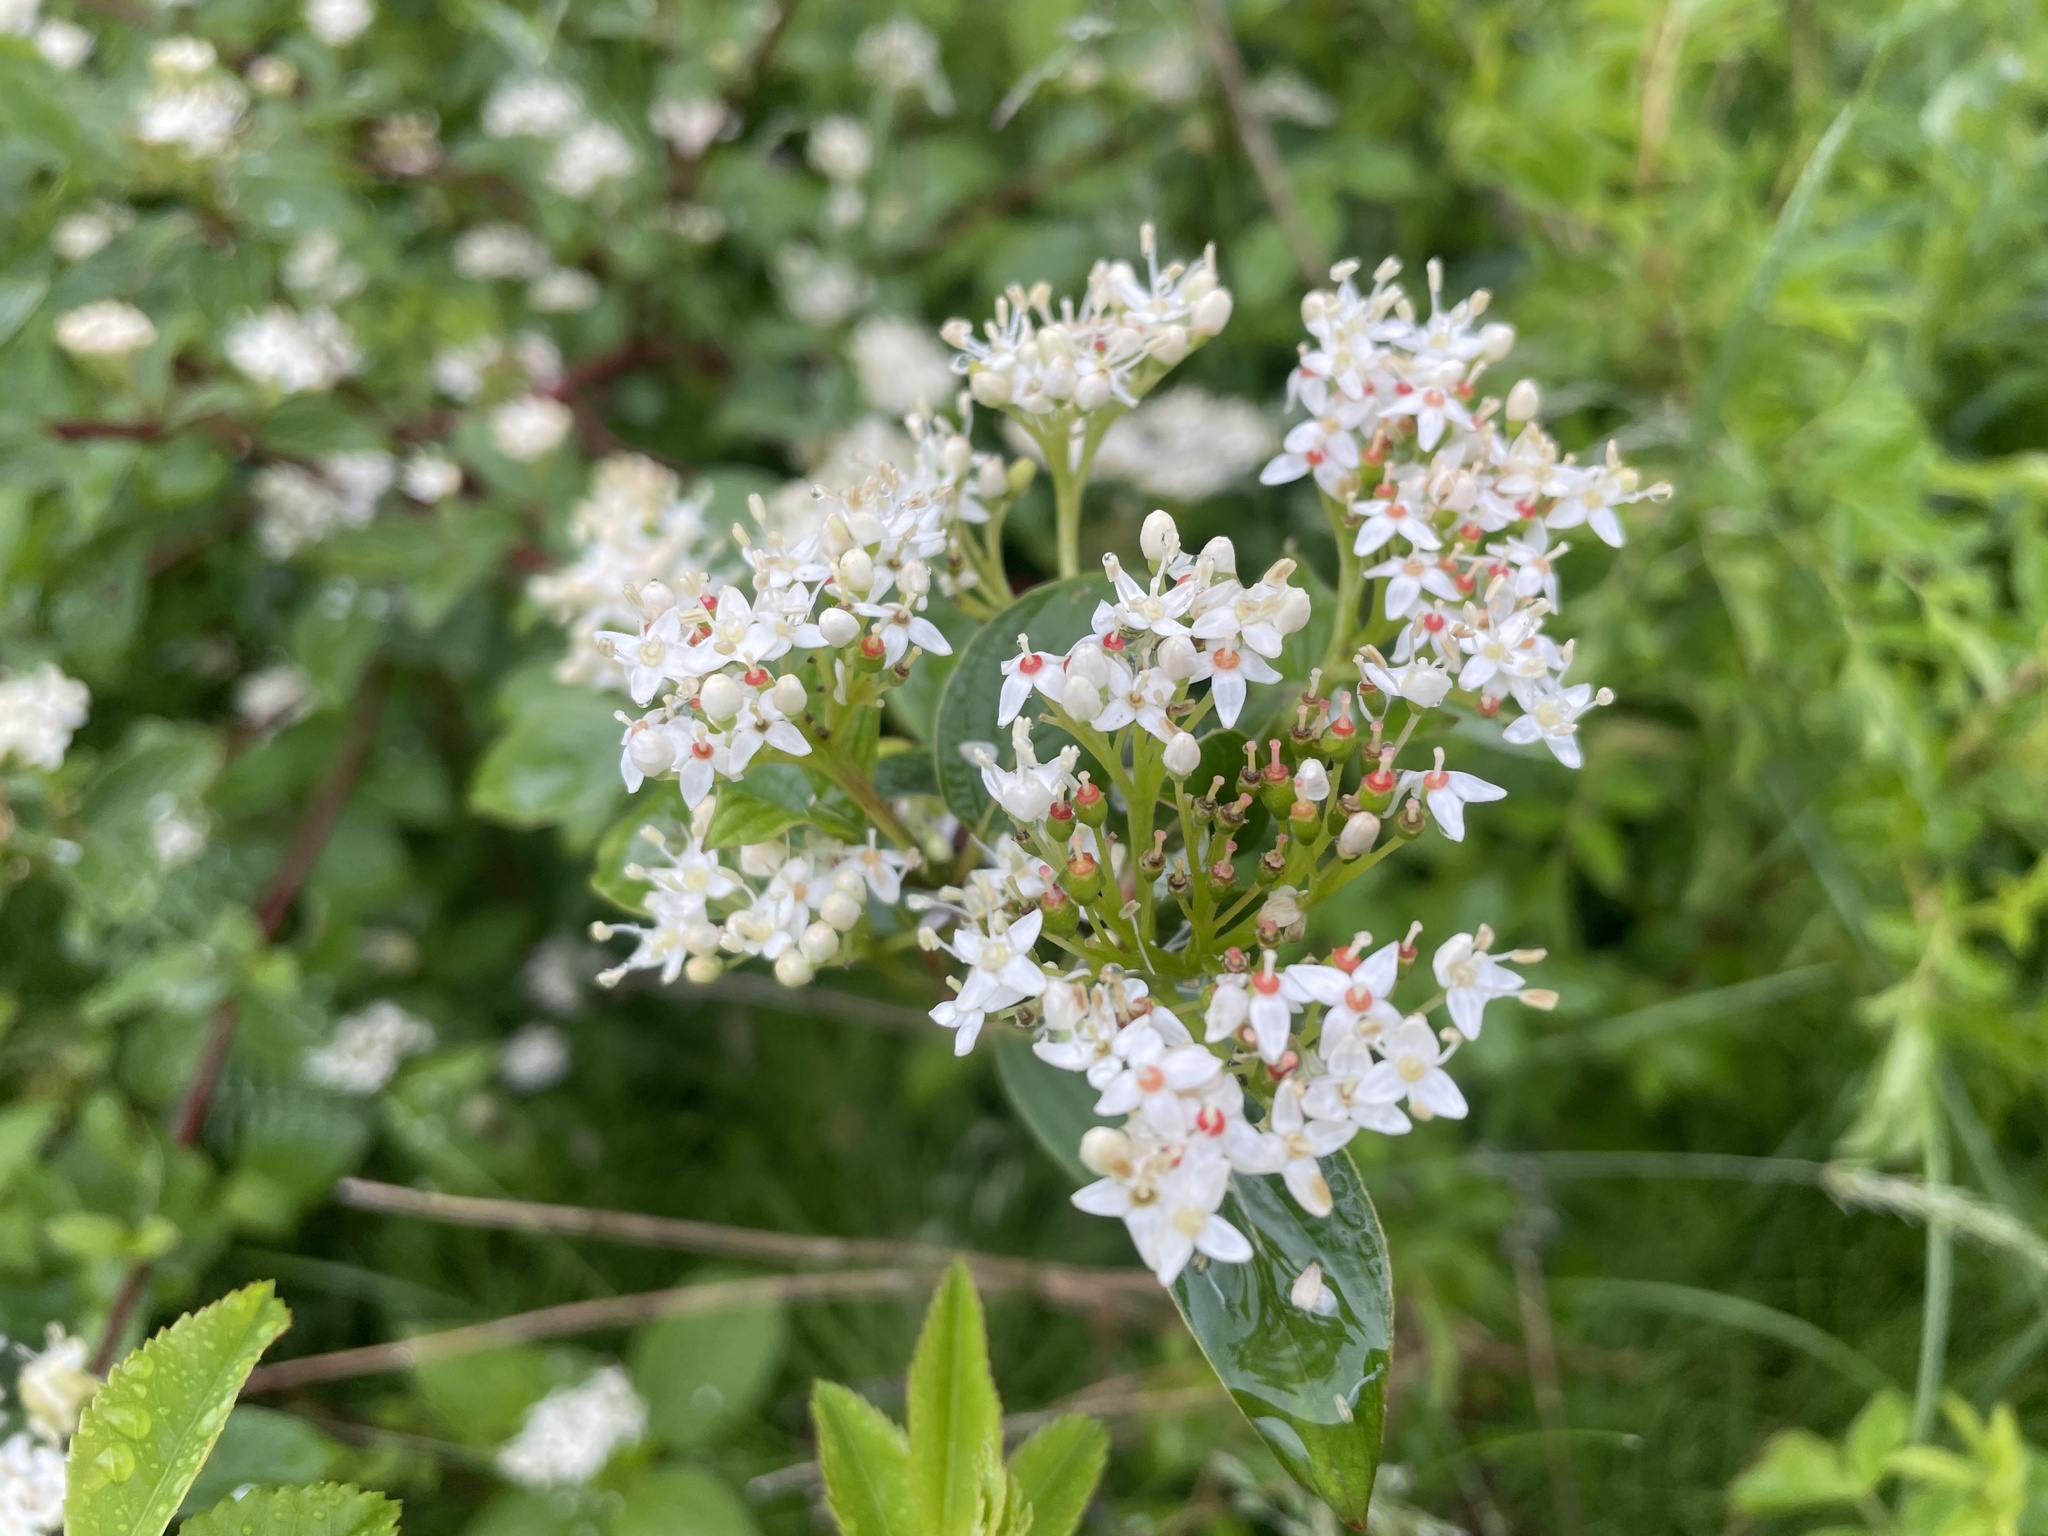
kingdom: Plantae
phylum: Tracheophyta
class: Magnoliopsida
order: Cornales
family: Cornaceae
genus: Cornus
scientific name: Cornus sericea
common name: Red-osier dogwood
